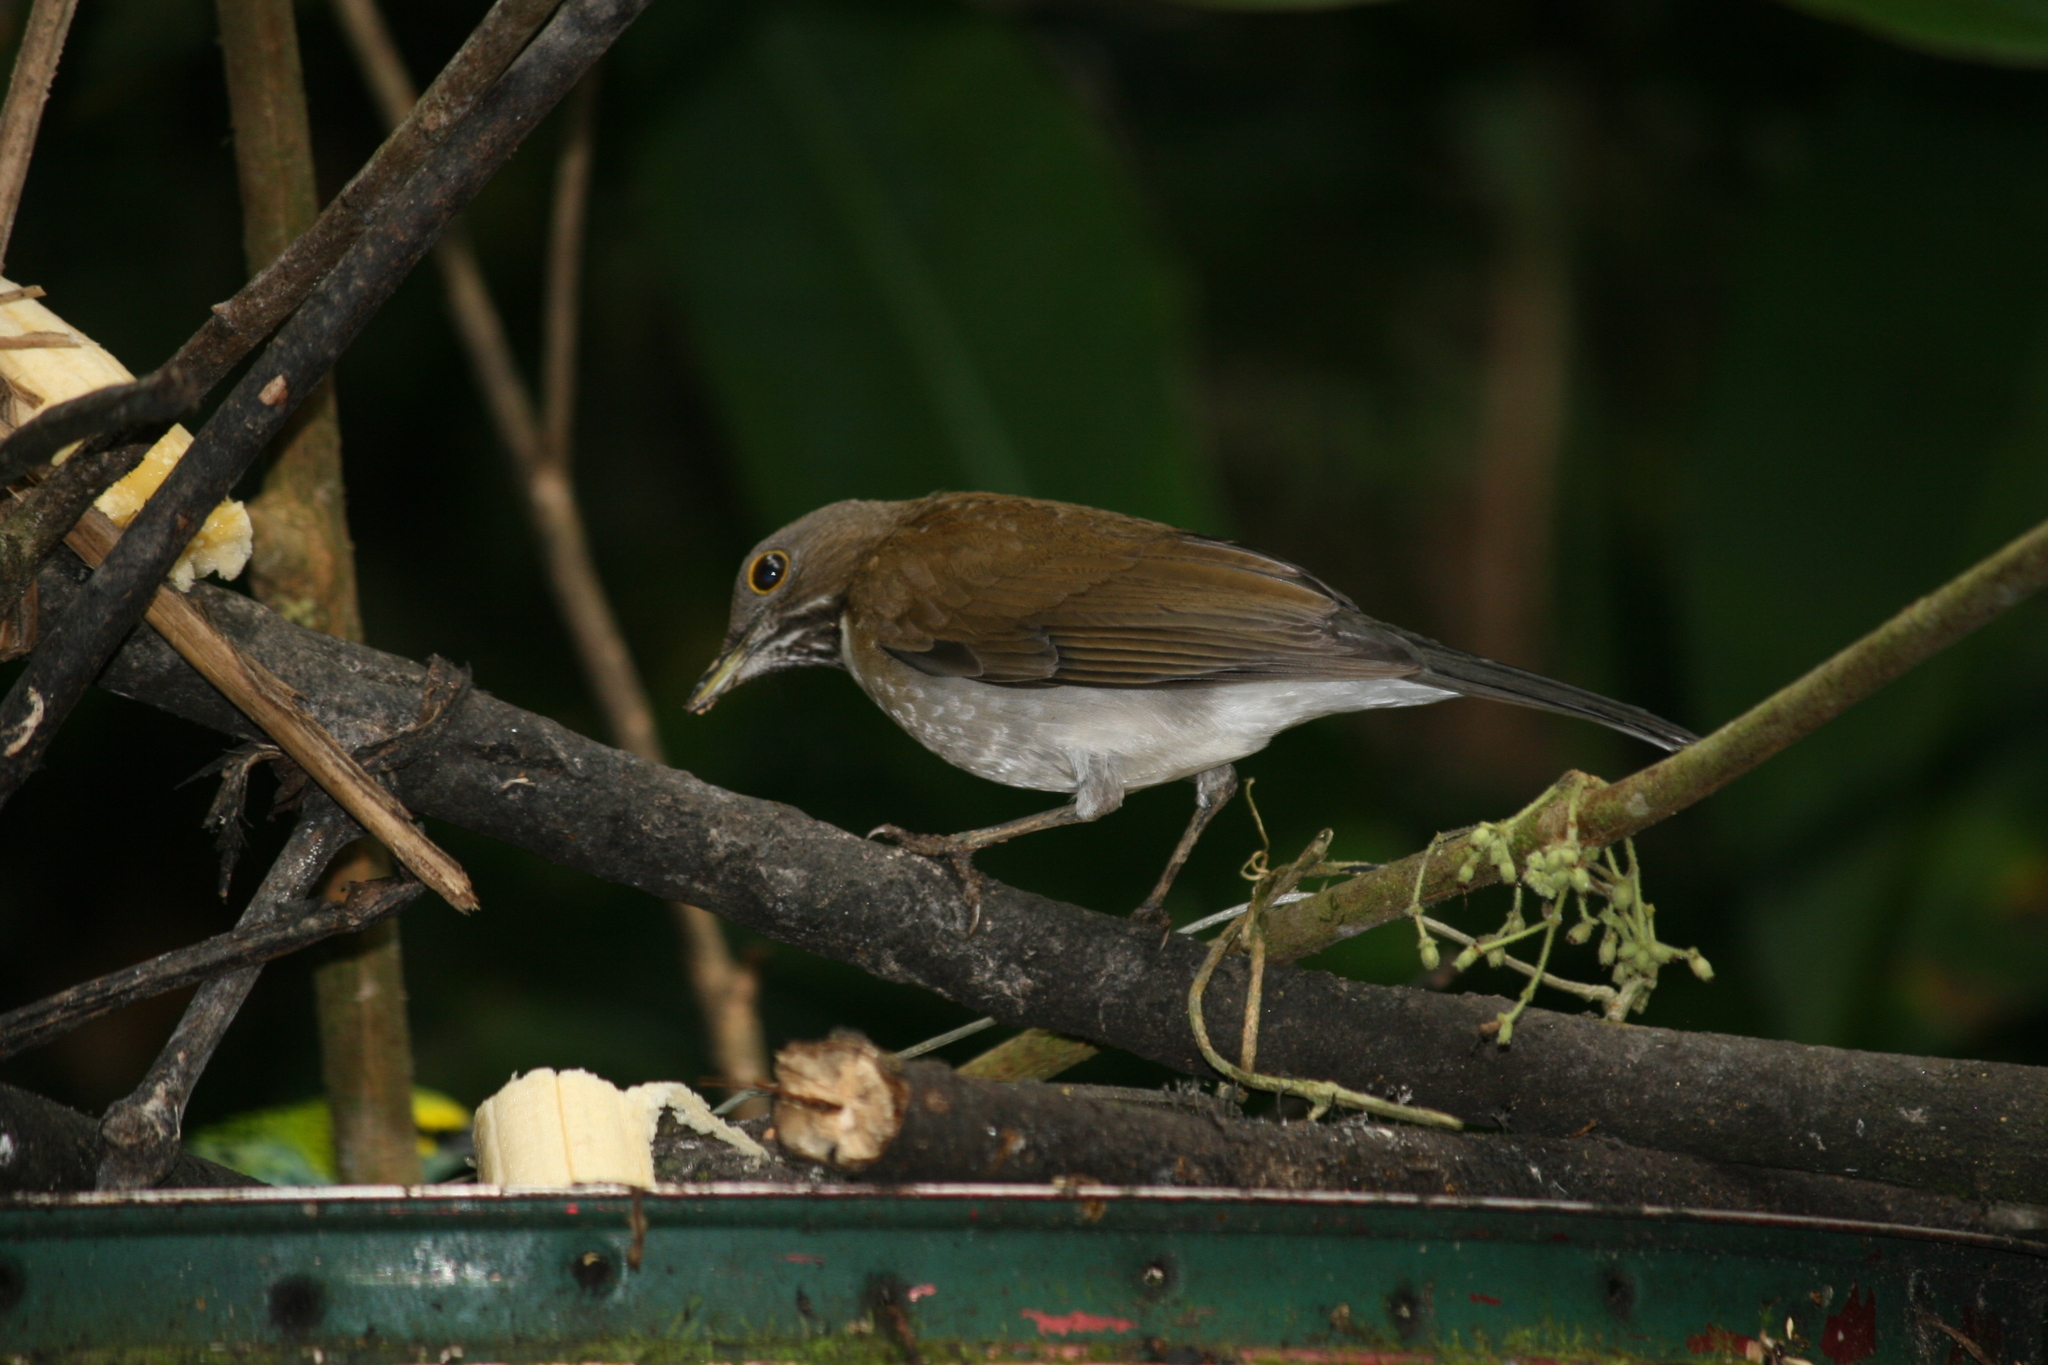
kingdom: Animalia
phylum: Chordata
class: Aves
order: Passeriformes
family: Turdidae
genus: Turdus
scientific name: Turdus albicollis
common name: White-necked thrush
